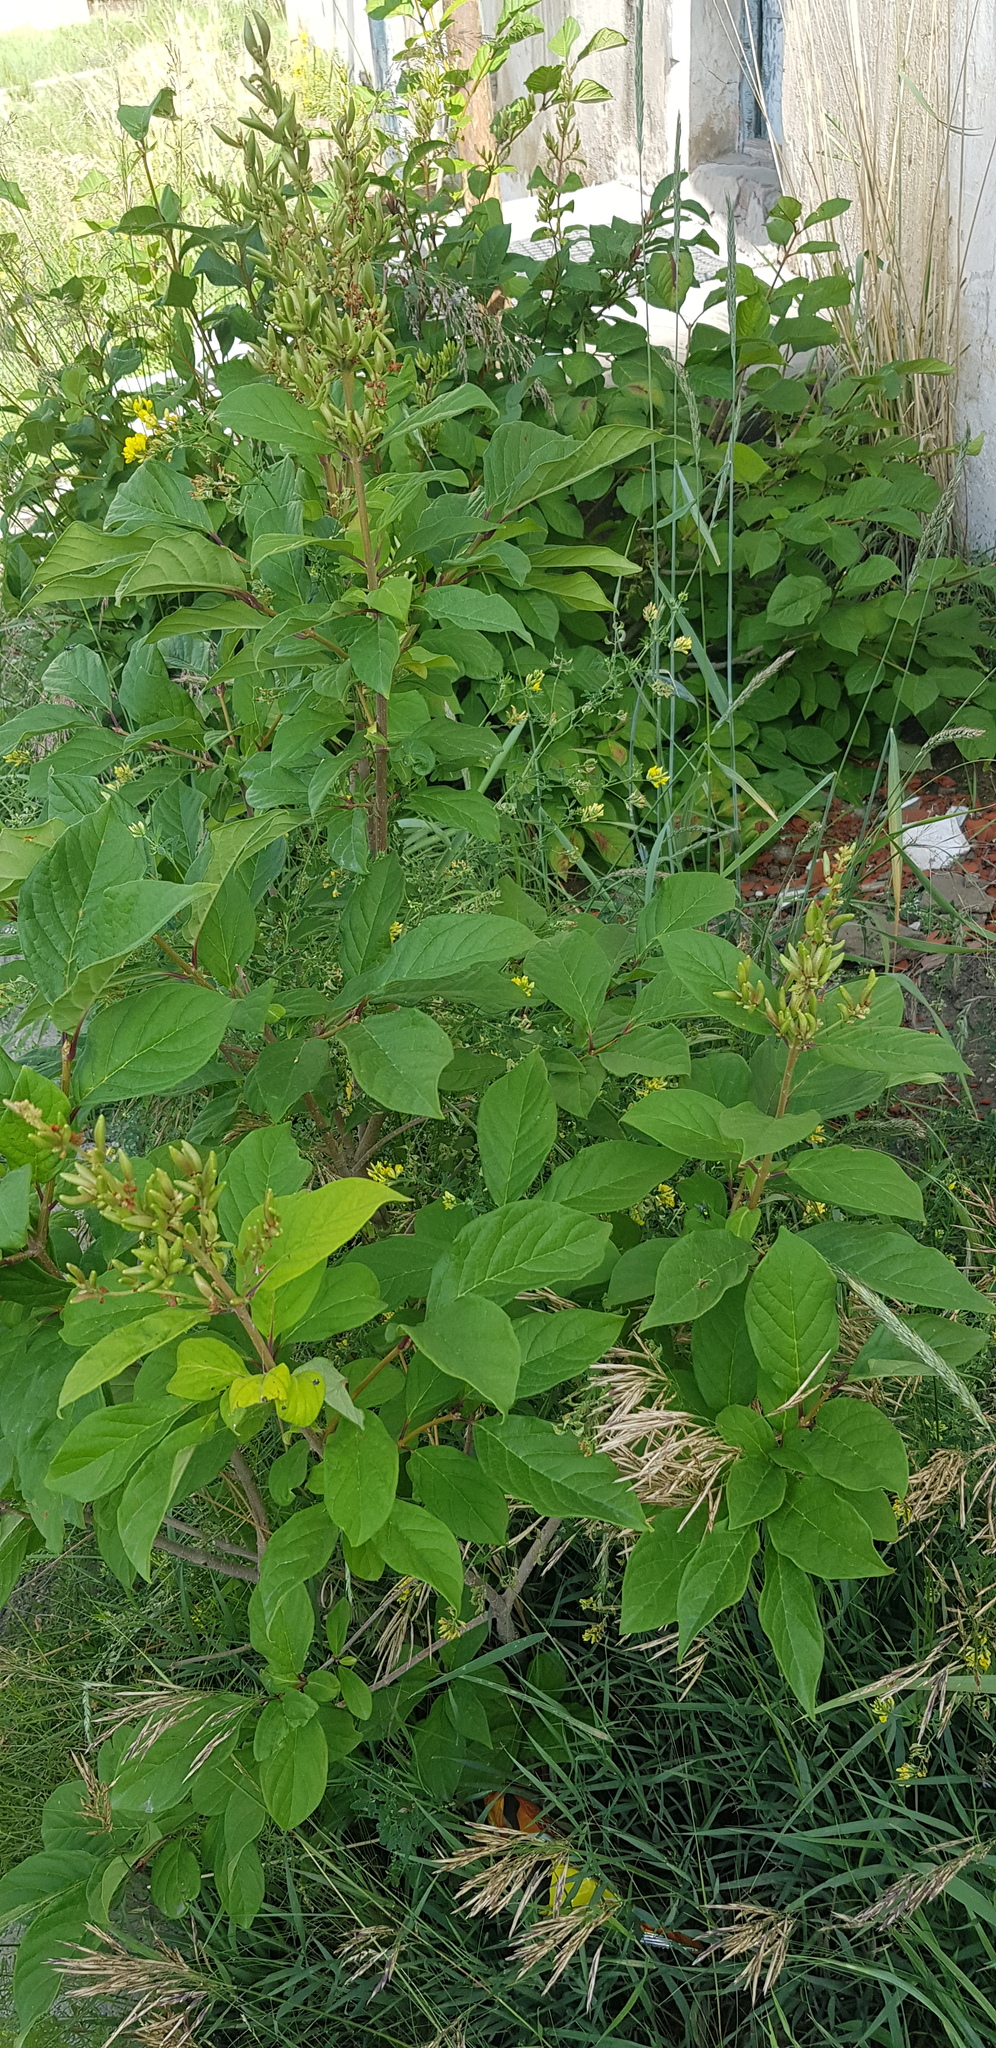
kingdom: Plantae
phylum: Tracheophyta
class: Magnoliopsida
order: Lamiales
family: Oleaceae
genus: Syringa
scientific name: Syringa josikaea
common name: Hungarian lilac
